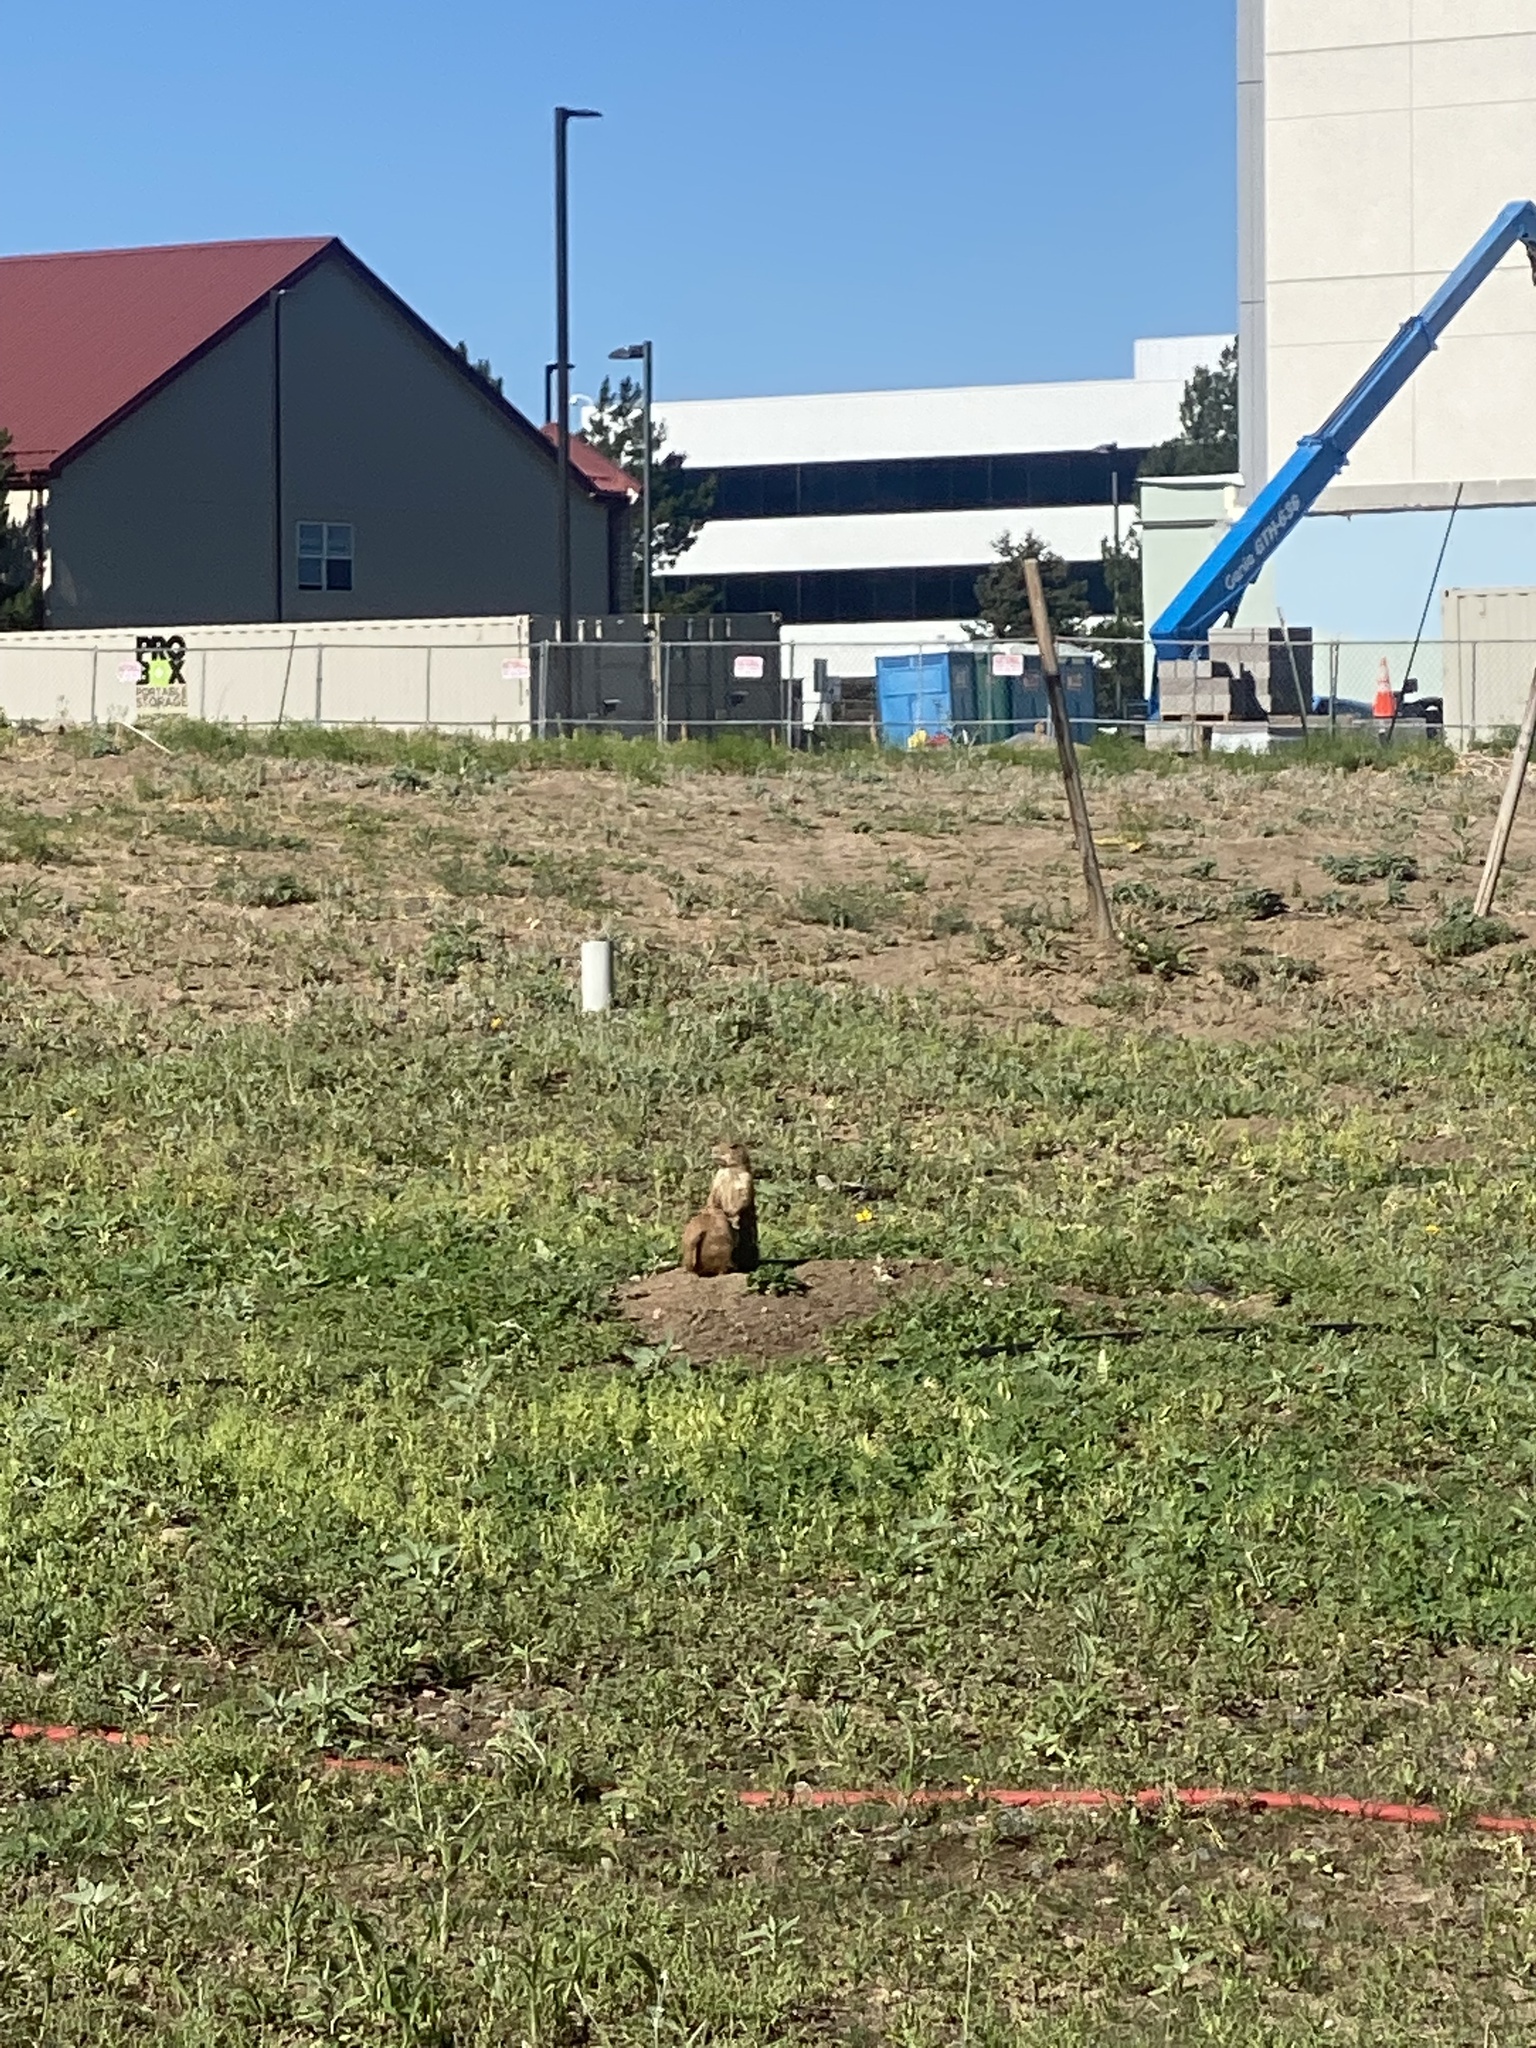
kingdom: Animalia
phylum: Chordata
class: Mammalia
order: Rodentia
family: Sciuridae
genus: Cynomys
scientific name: Cynomys ludovicianus
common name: Black-tailed prairie dog
